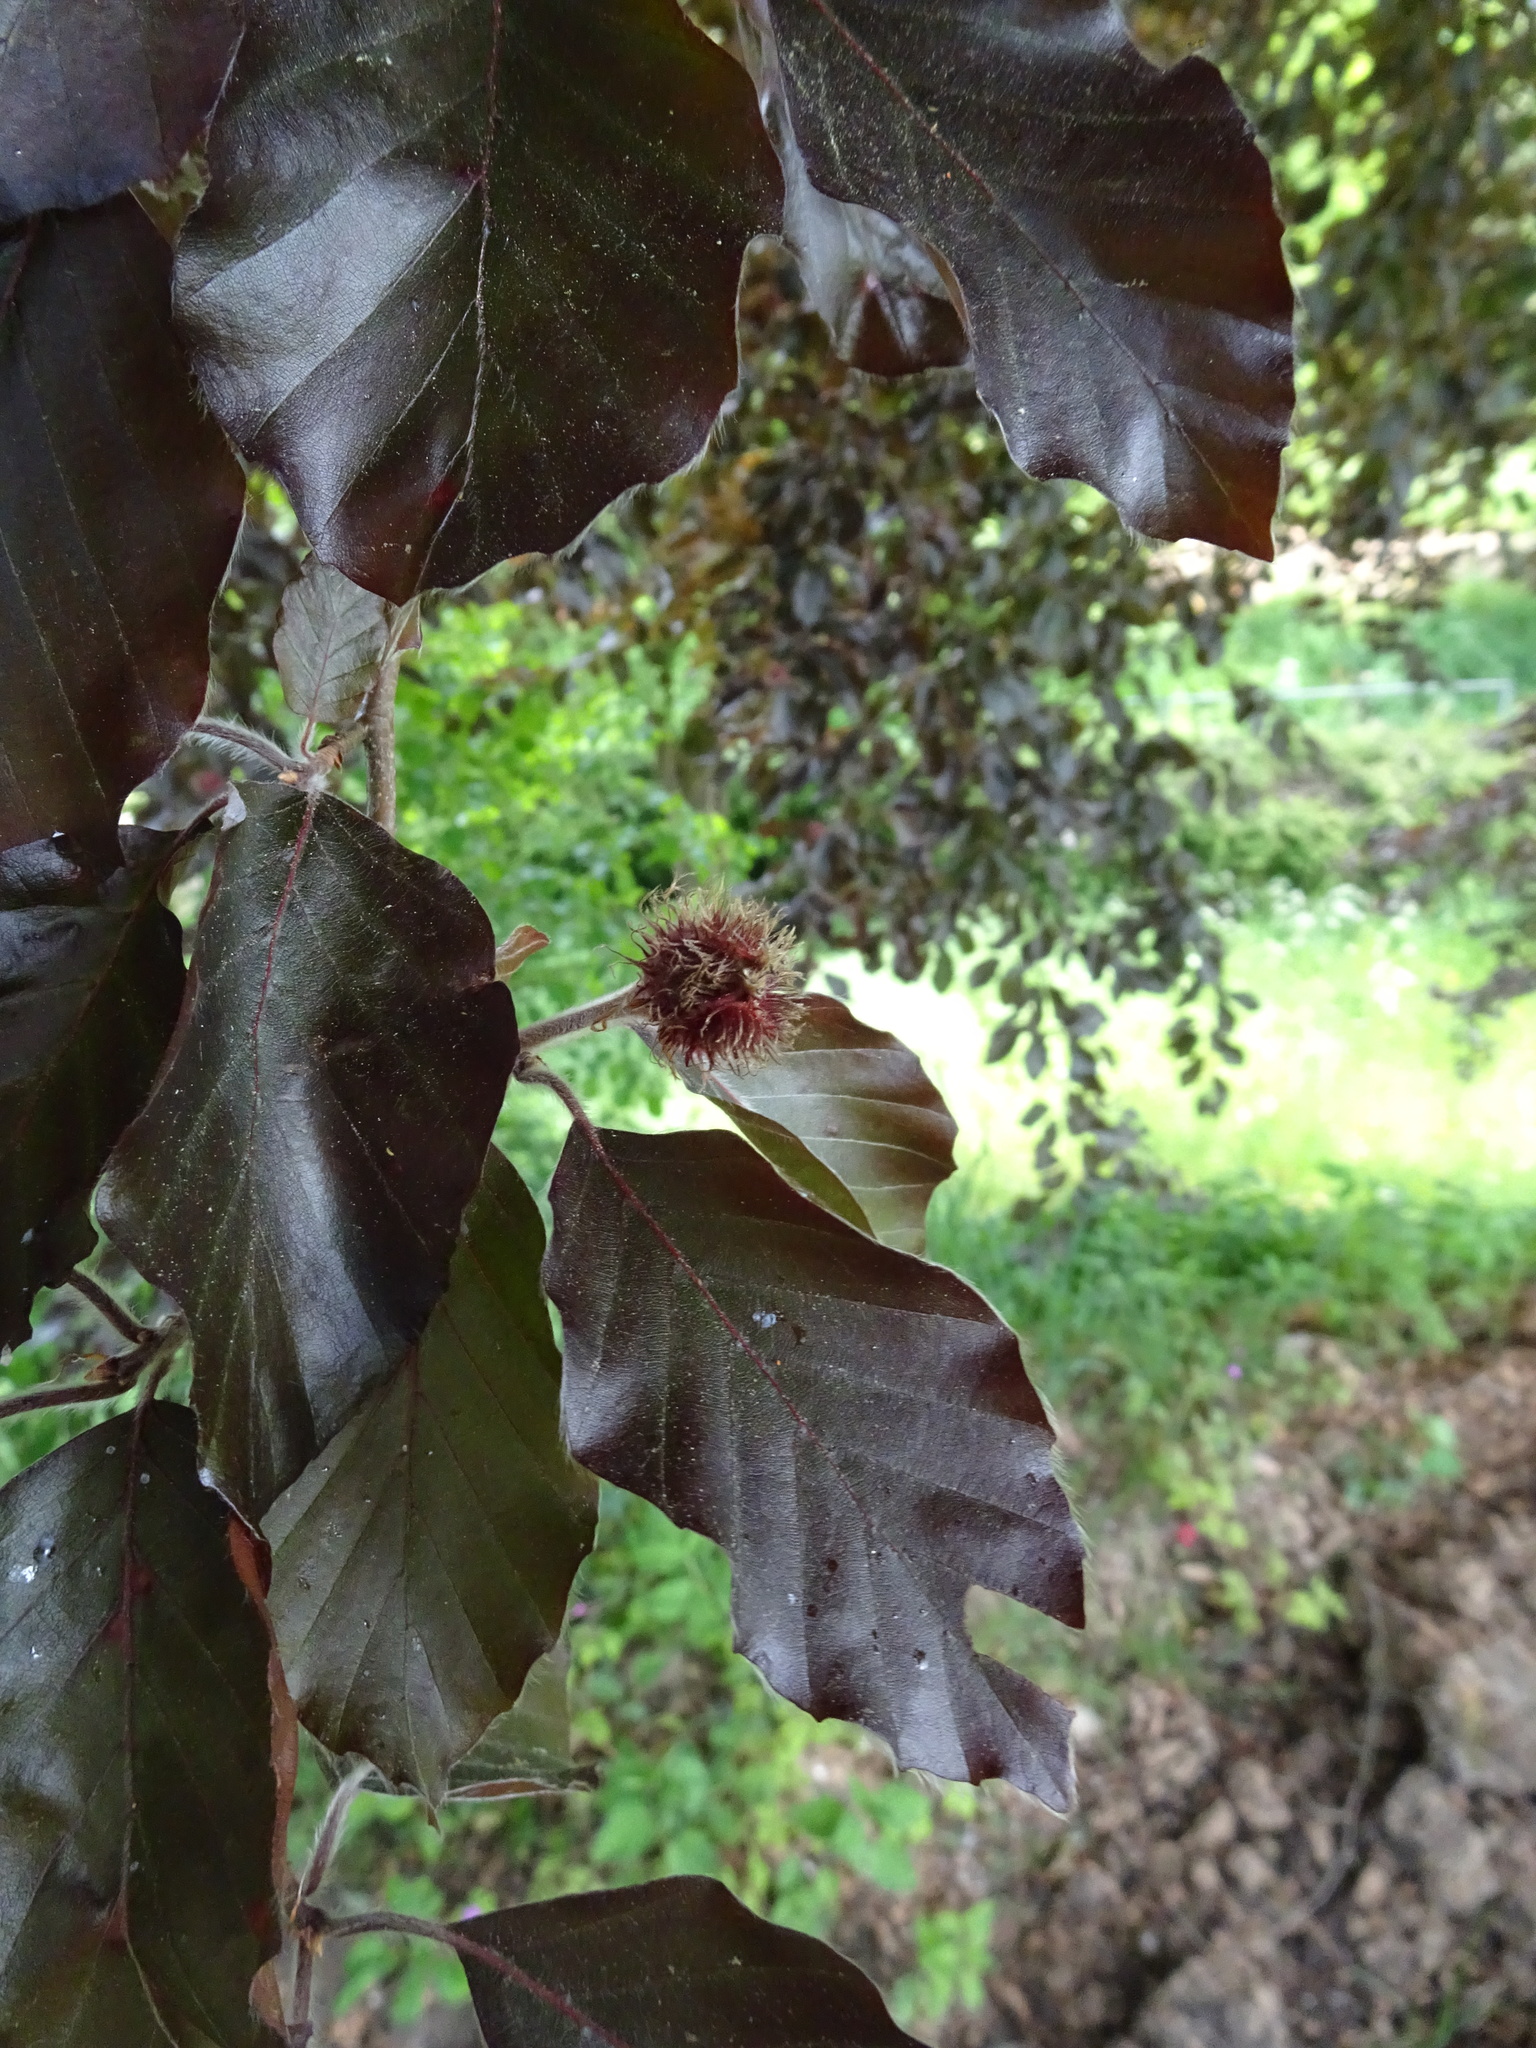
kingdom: Plantae
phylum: Tracheophyta
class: Magnoliopsida
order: Fagales
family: Fagaceae
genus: Fagus
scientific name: Fagus sylvatica
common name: Beech
